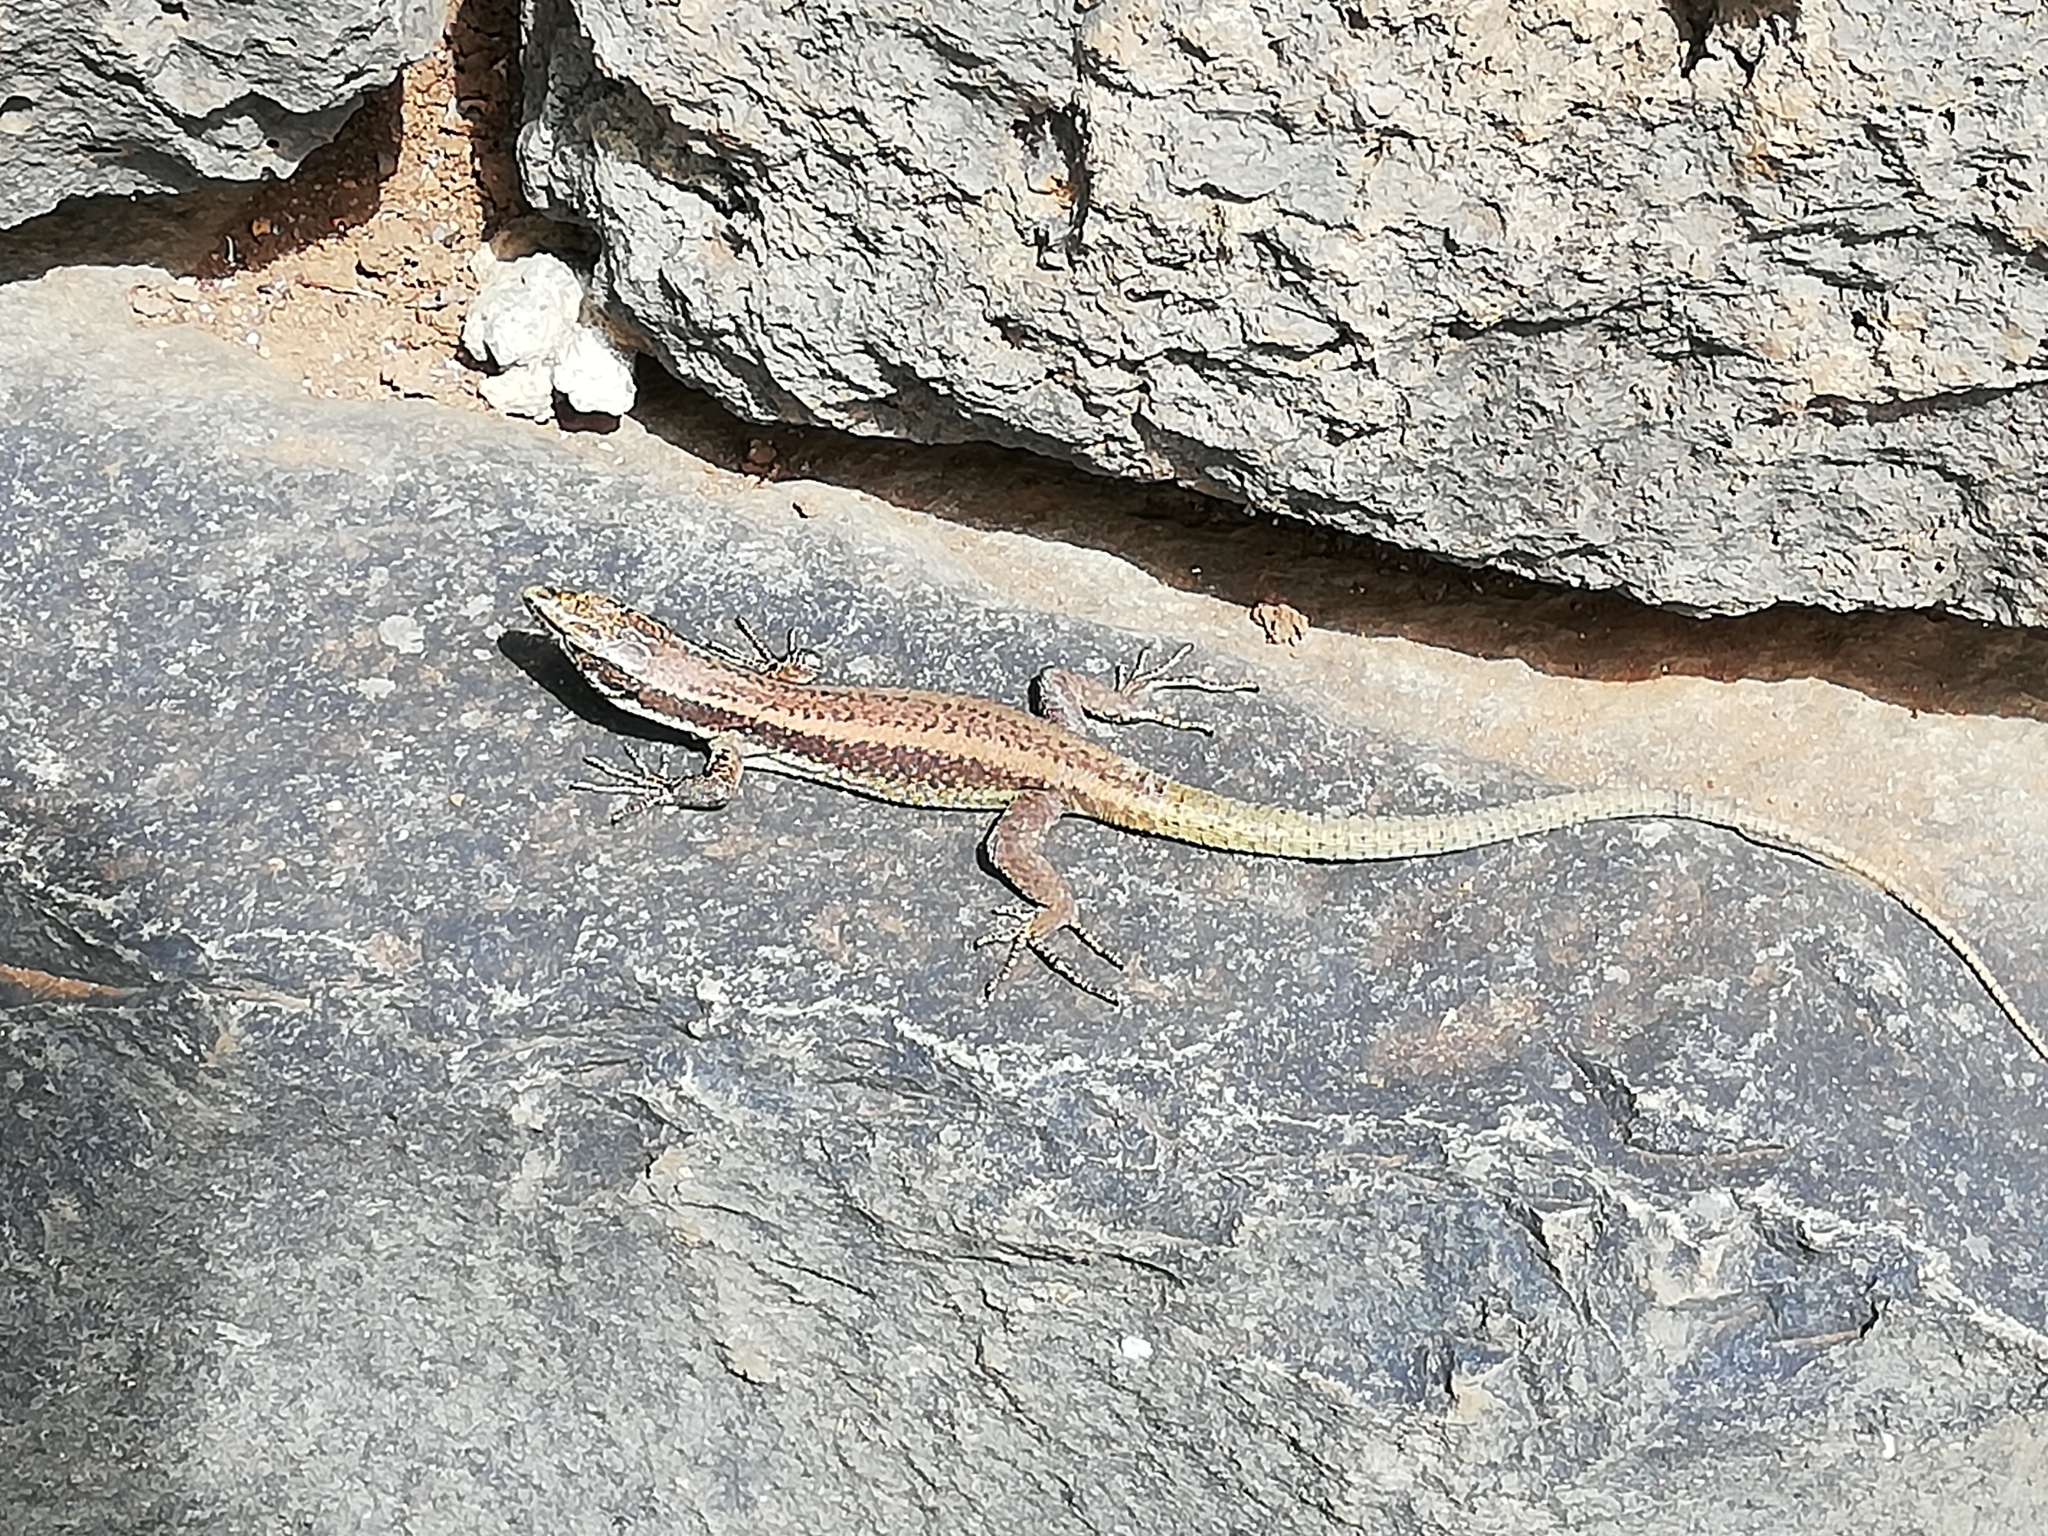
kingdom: Animalia
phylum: Chordata
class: Squamata
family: Lacertidae
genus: Teira
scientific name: Teira dugesii
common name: Madeira lizard
